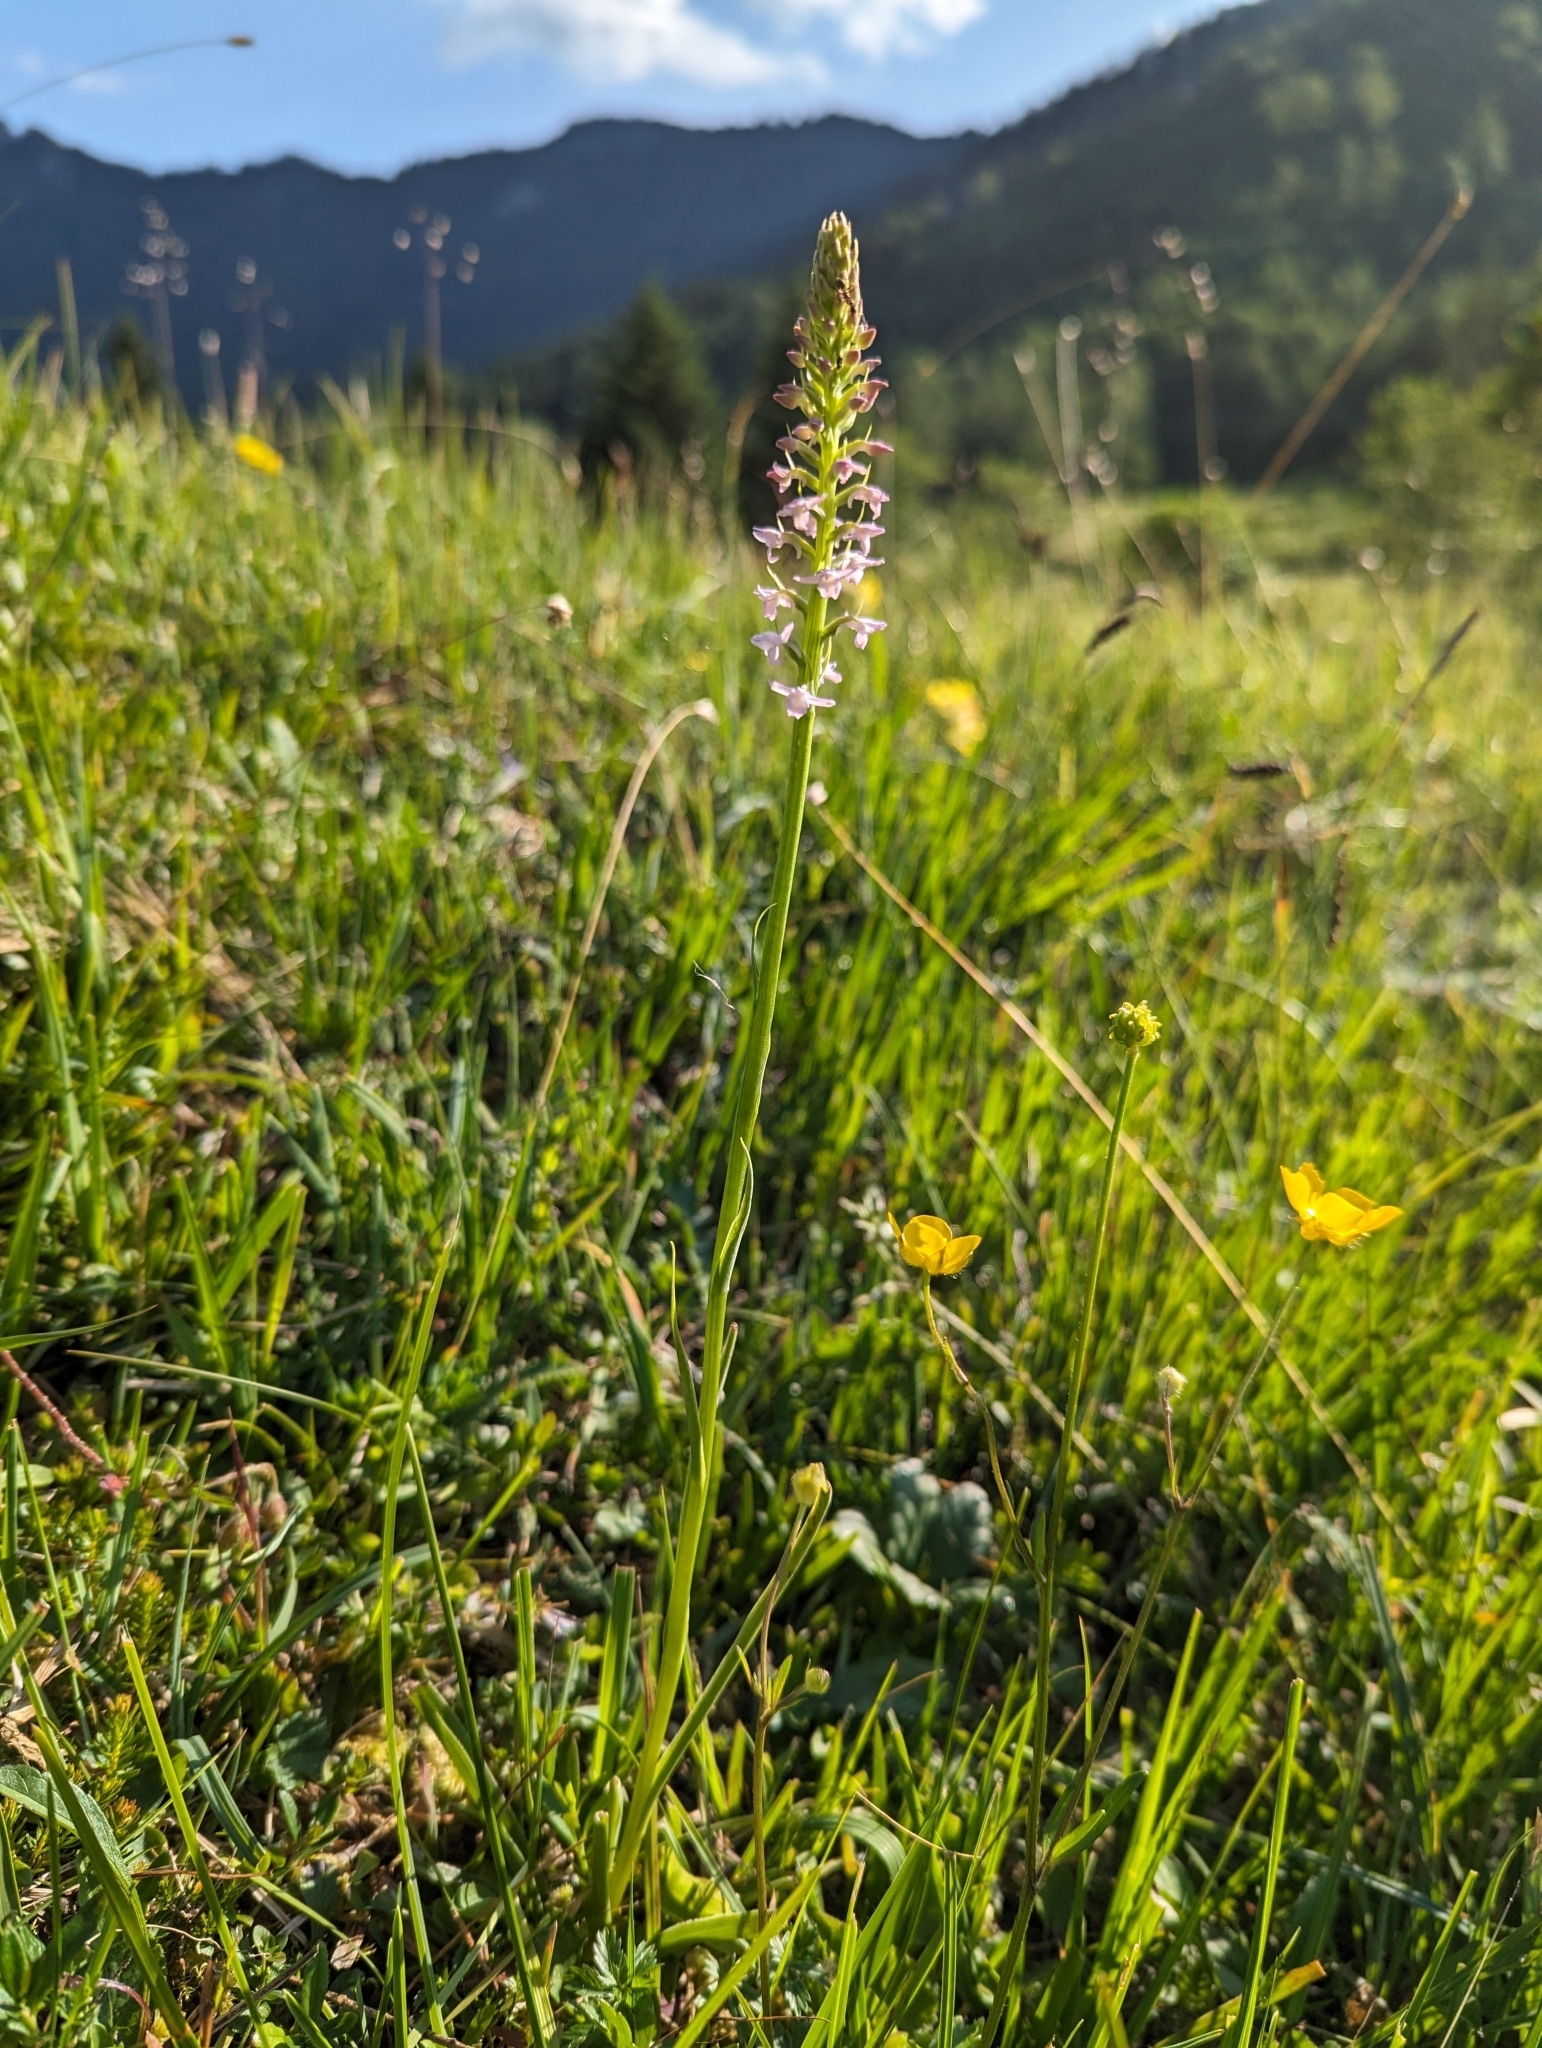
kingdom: Plantae
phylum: Tracheophyta
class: Liliopsida
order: Asparagales
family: Orchidaceae
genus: Gymnadenia
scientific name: Gymnadenia odoratissima
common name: Scented gymnadenia
